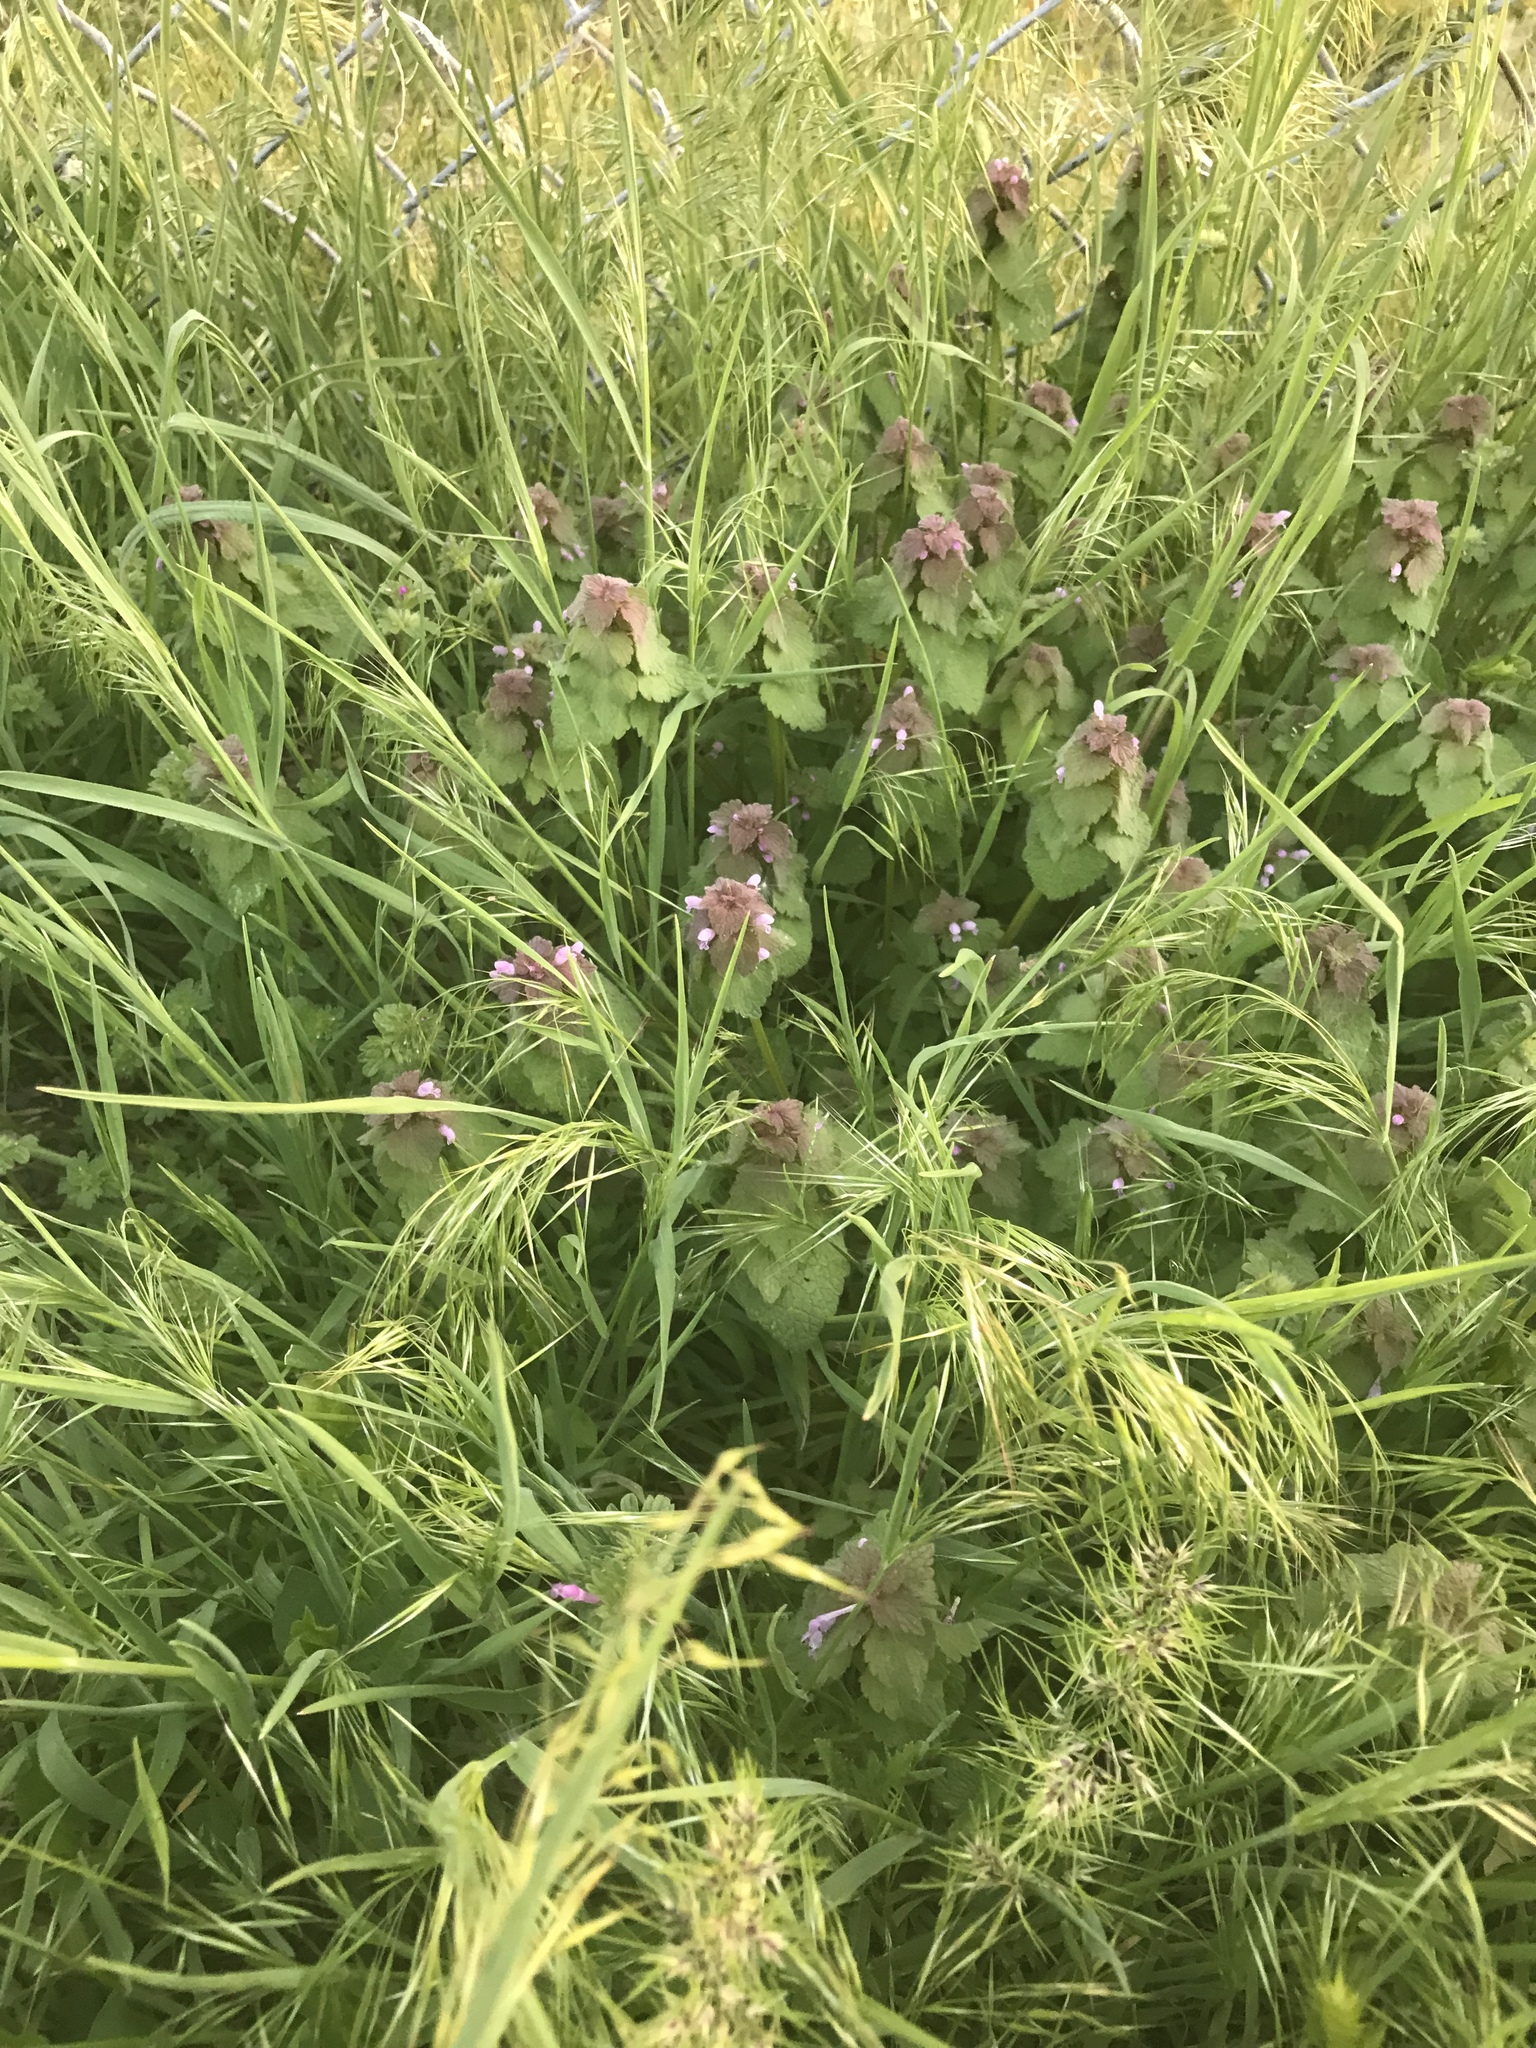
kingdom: Plantae
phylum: Tracheophyta
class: Magnoliopsida
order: Lamiales
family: Lamiaceae
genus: Lamium
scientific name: Lamium purpureum
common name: Red dead-nettle
